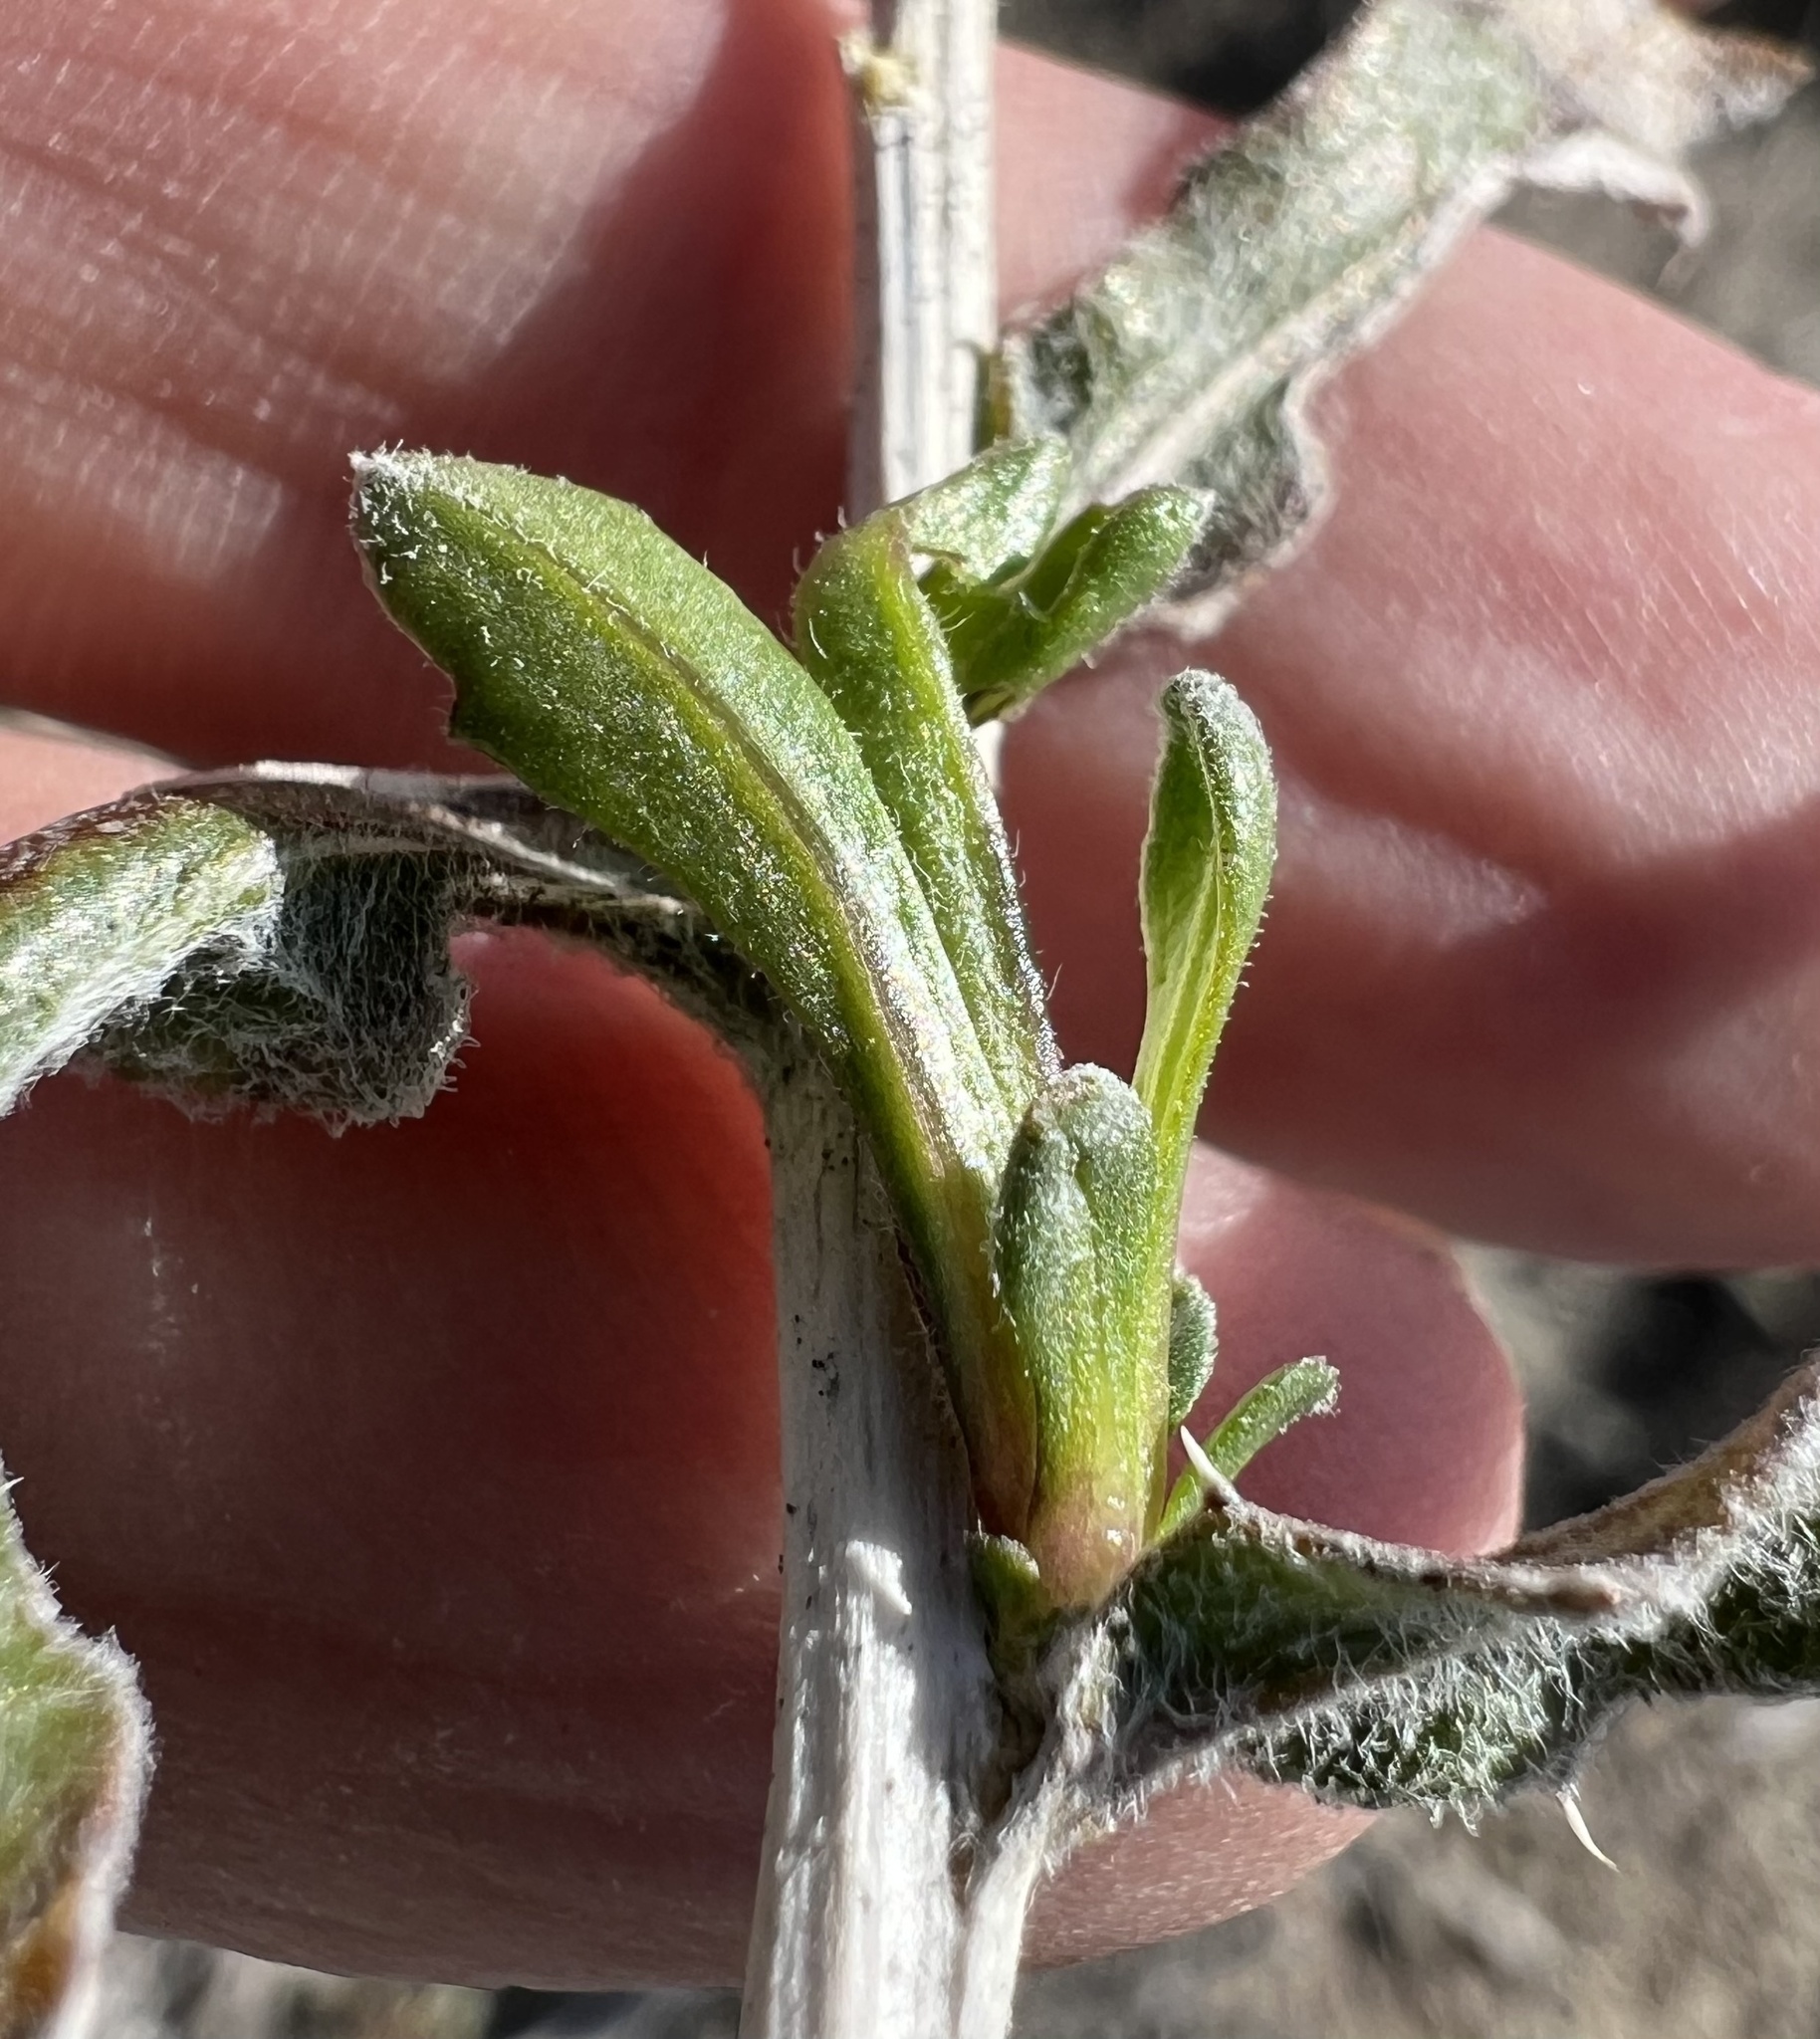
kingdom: Plantae
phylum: Tracheophyta
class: Magnoliopsida
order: Asterales
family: Asteraceae
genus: Xylorhiza
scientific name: Xylorhiza tortifolia
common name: Hurt-leaf woody-aster
